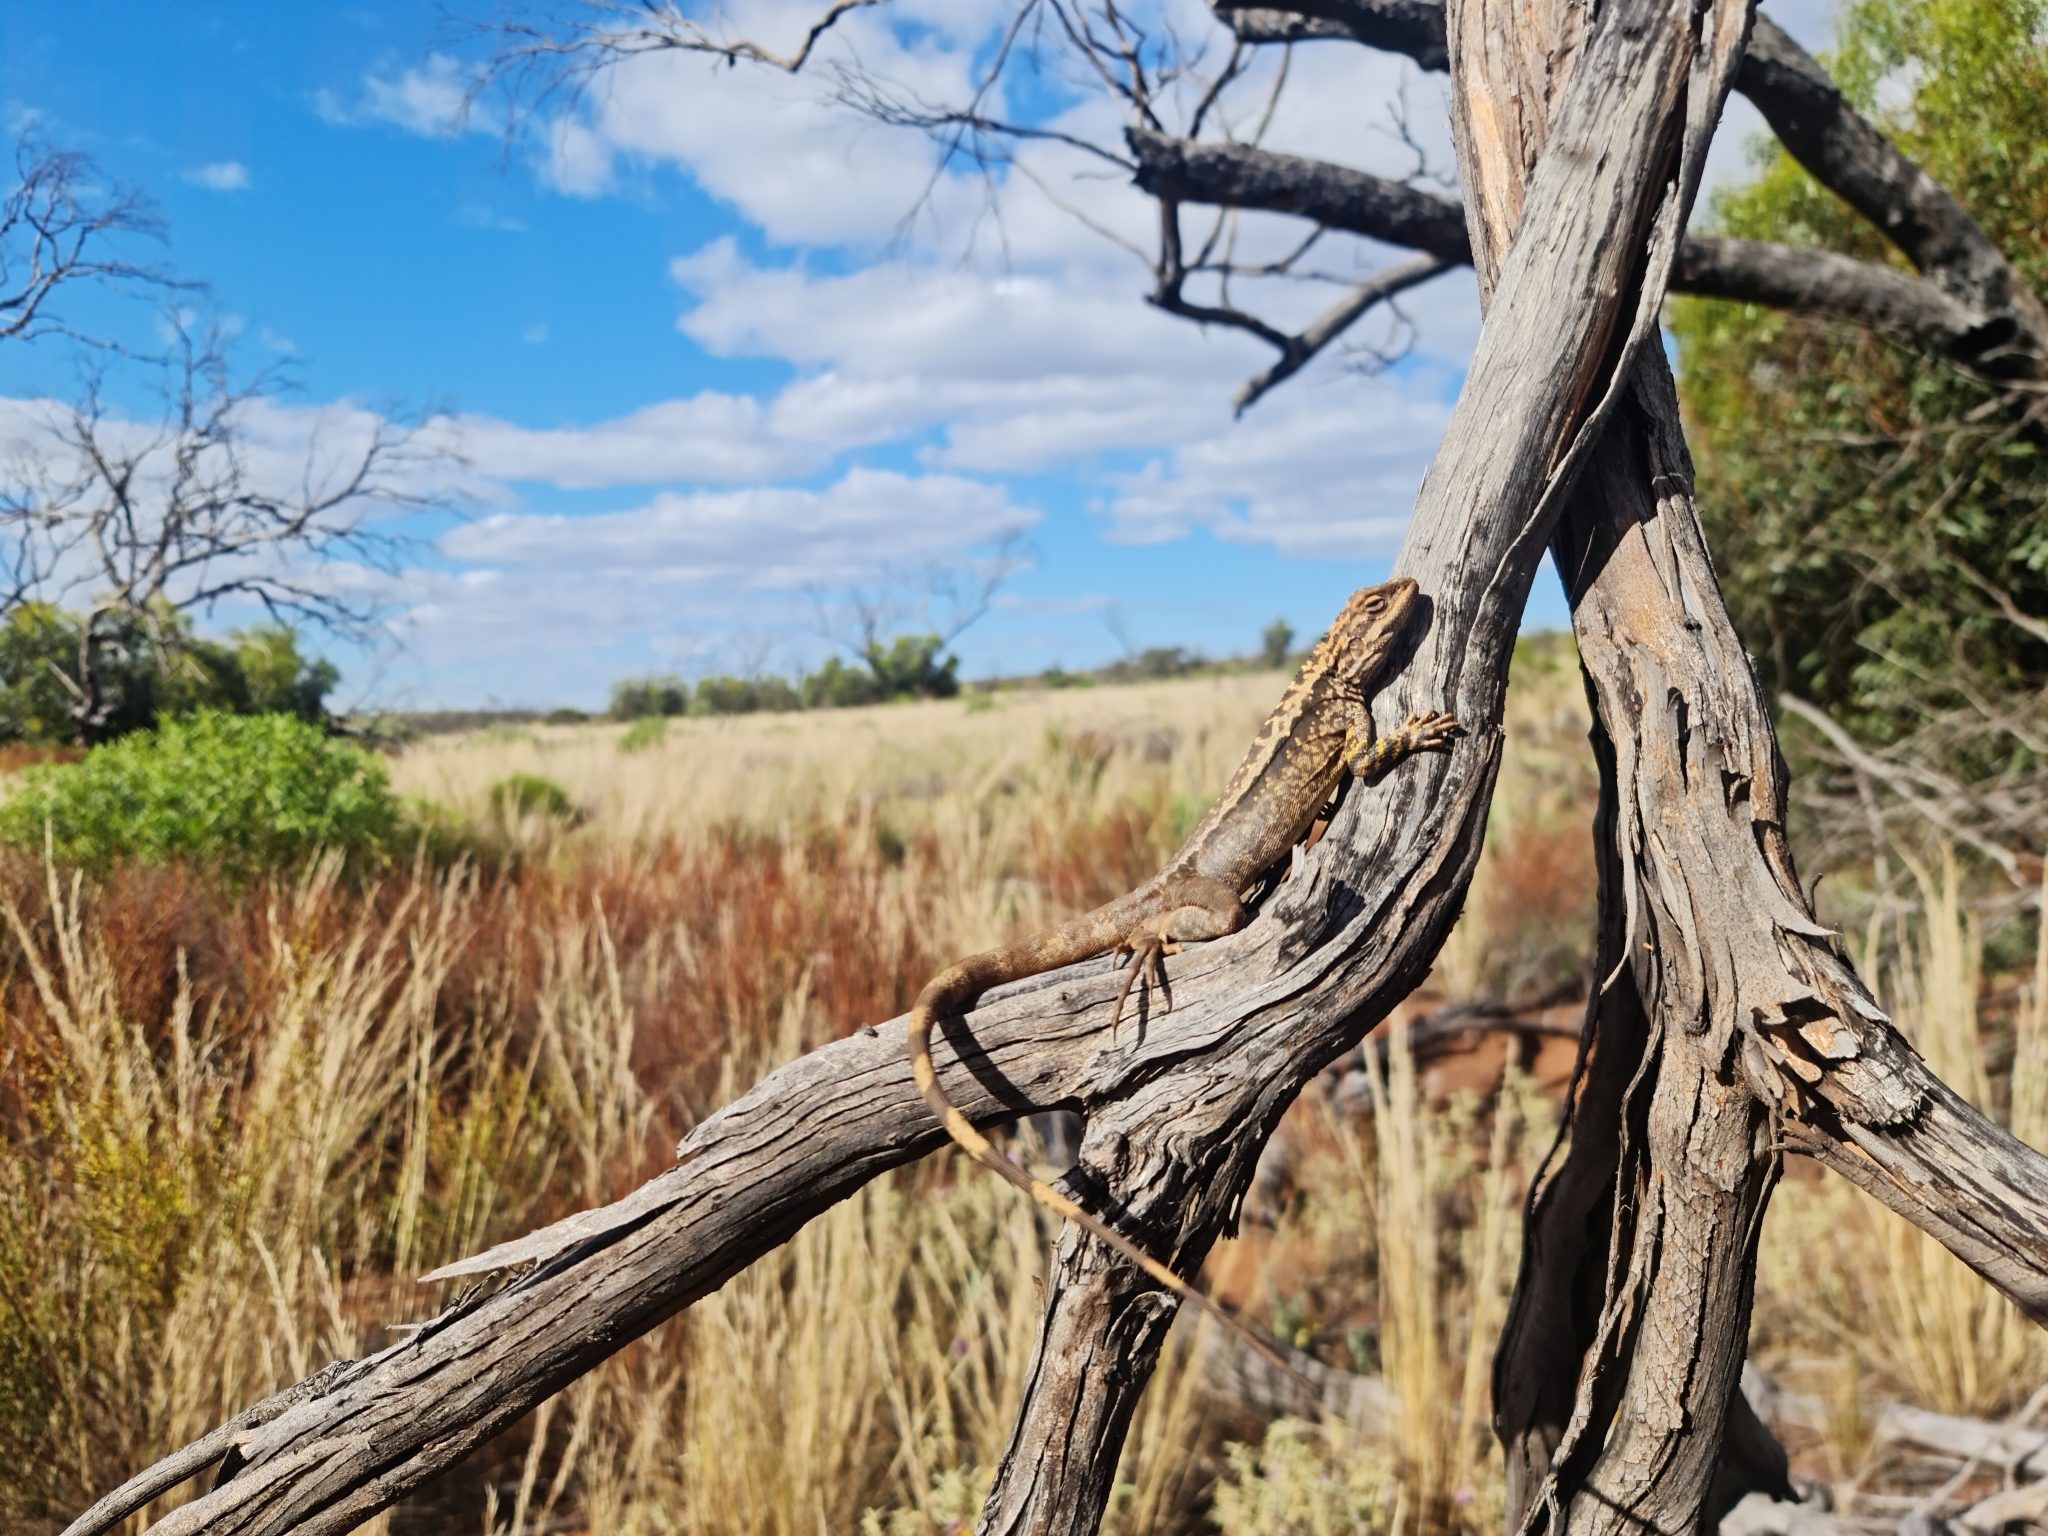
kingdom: Animalia
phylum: Chordata
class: Squamata
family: Agamidae
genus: Ctenophorus
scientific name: Ctenophorus cristatus
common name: Crested dragon
